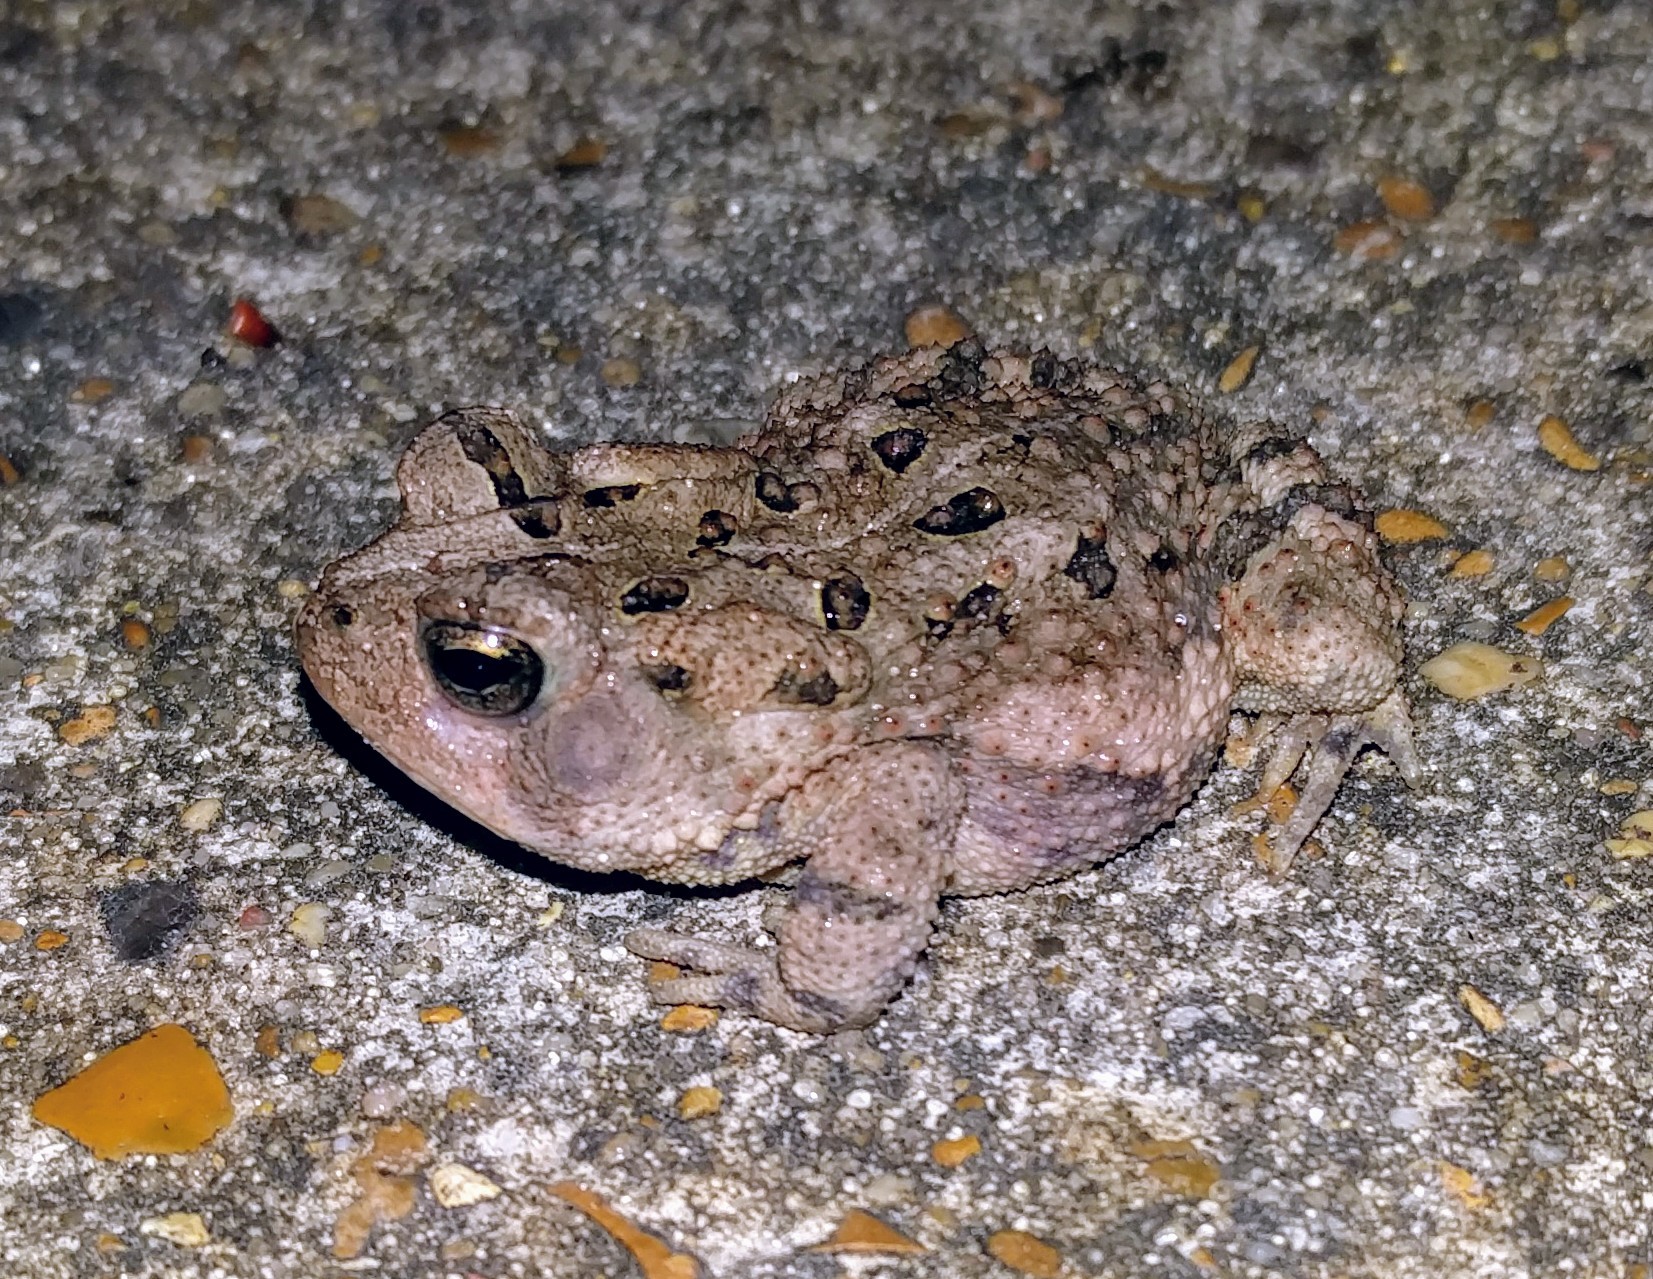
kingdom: Animalia
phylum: Chordata
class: Amphibia
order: Anura
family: Bufonidae
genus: Anaxyrus
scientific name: Anaxyrus fowleri
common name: Fowler's toad
